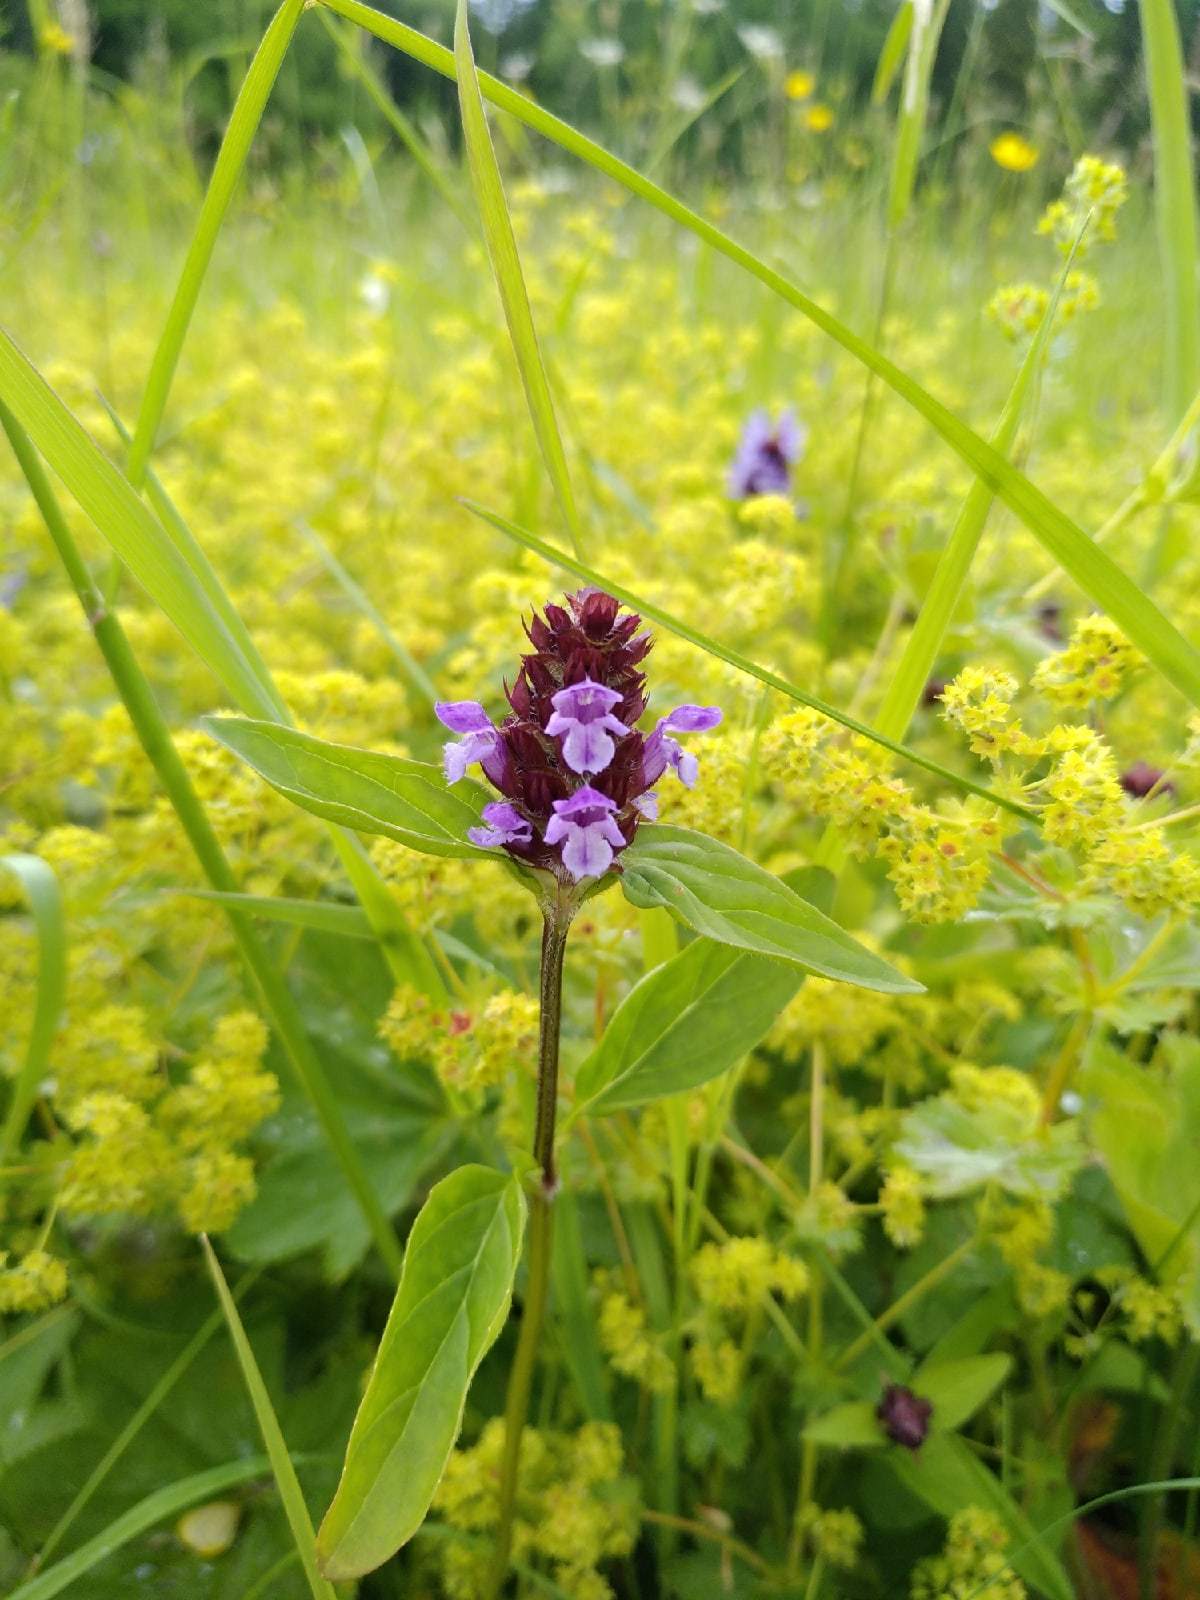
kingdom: Plantae
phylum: Tracheophyta
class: Magnoliopsida
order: Lamiales
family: Lamiaceae
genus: Prunella
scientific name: Prunella vulgaris
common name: Heal-all
